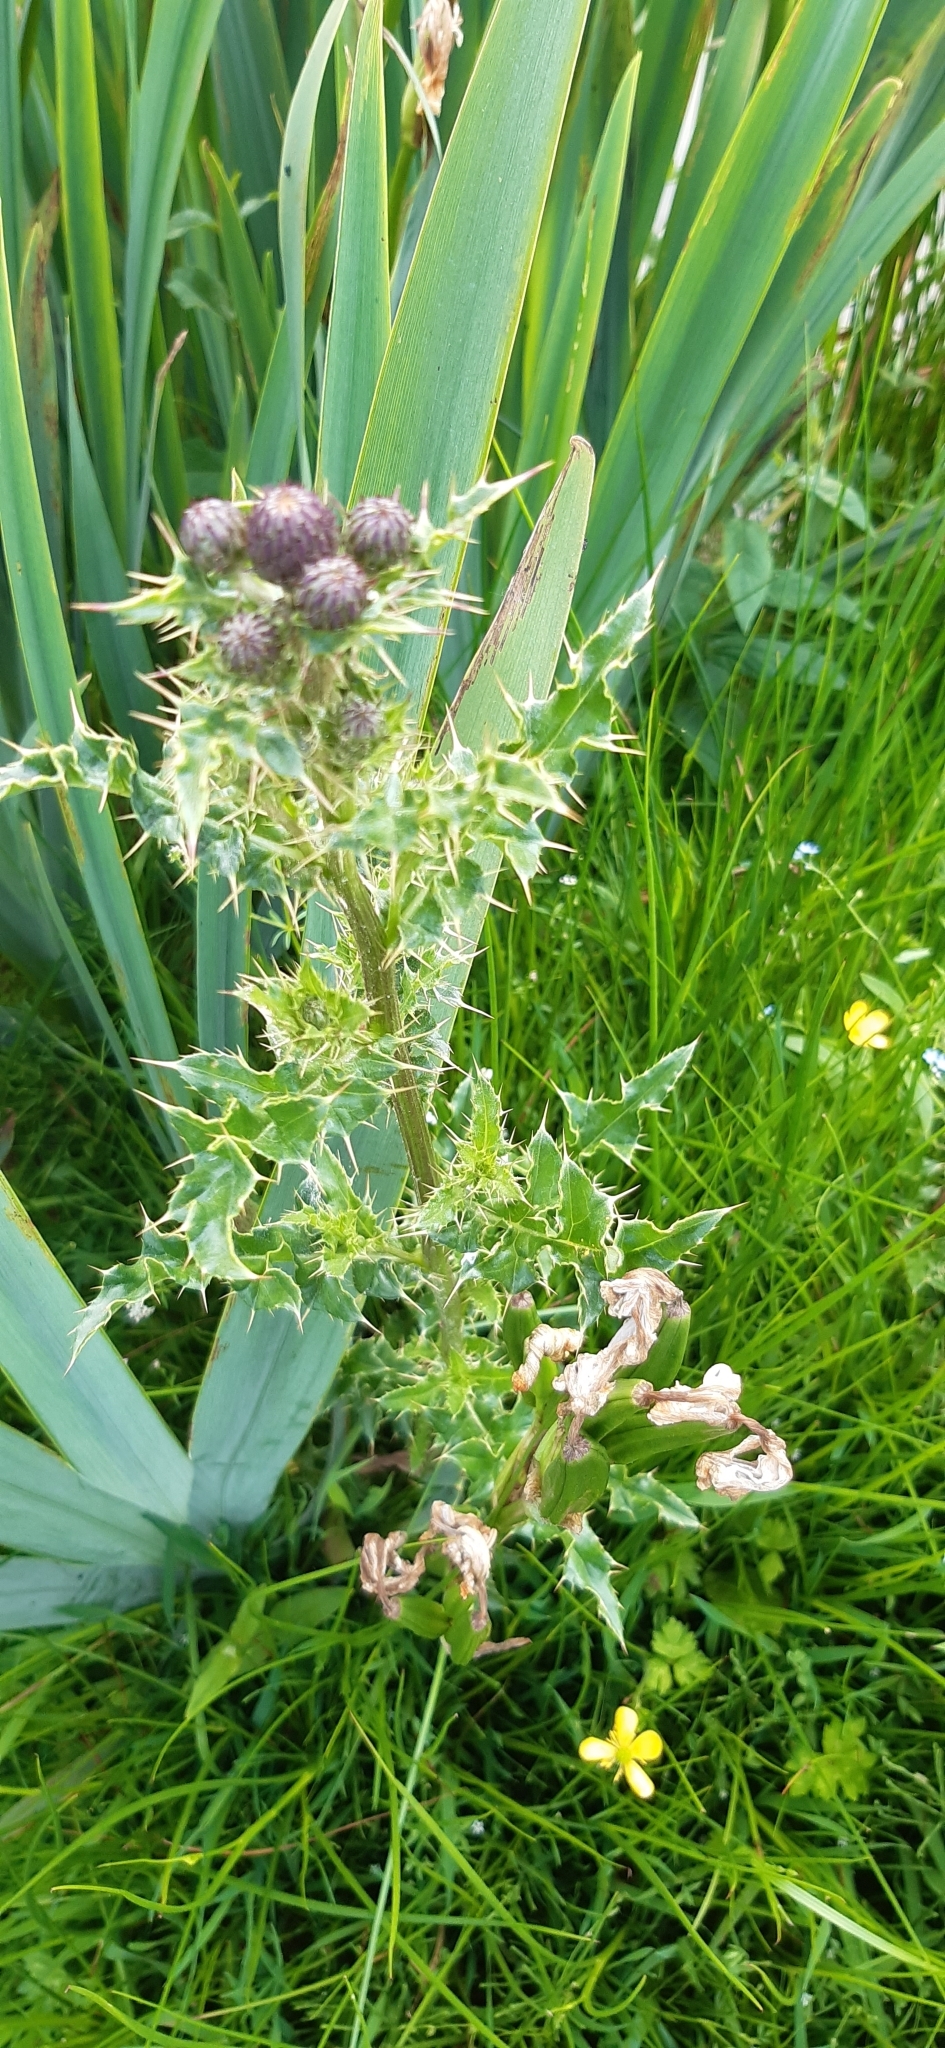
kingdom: Plantae
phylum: Tracheophyta
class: Magnoliopsida
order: Asterales
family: Asteraceae
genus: Cirsium
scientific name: Cirsium arvense
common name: Creeping thistle
